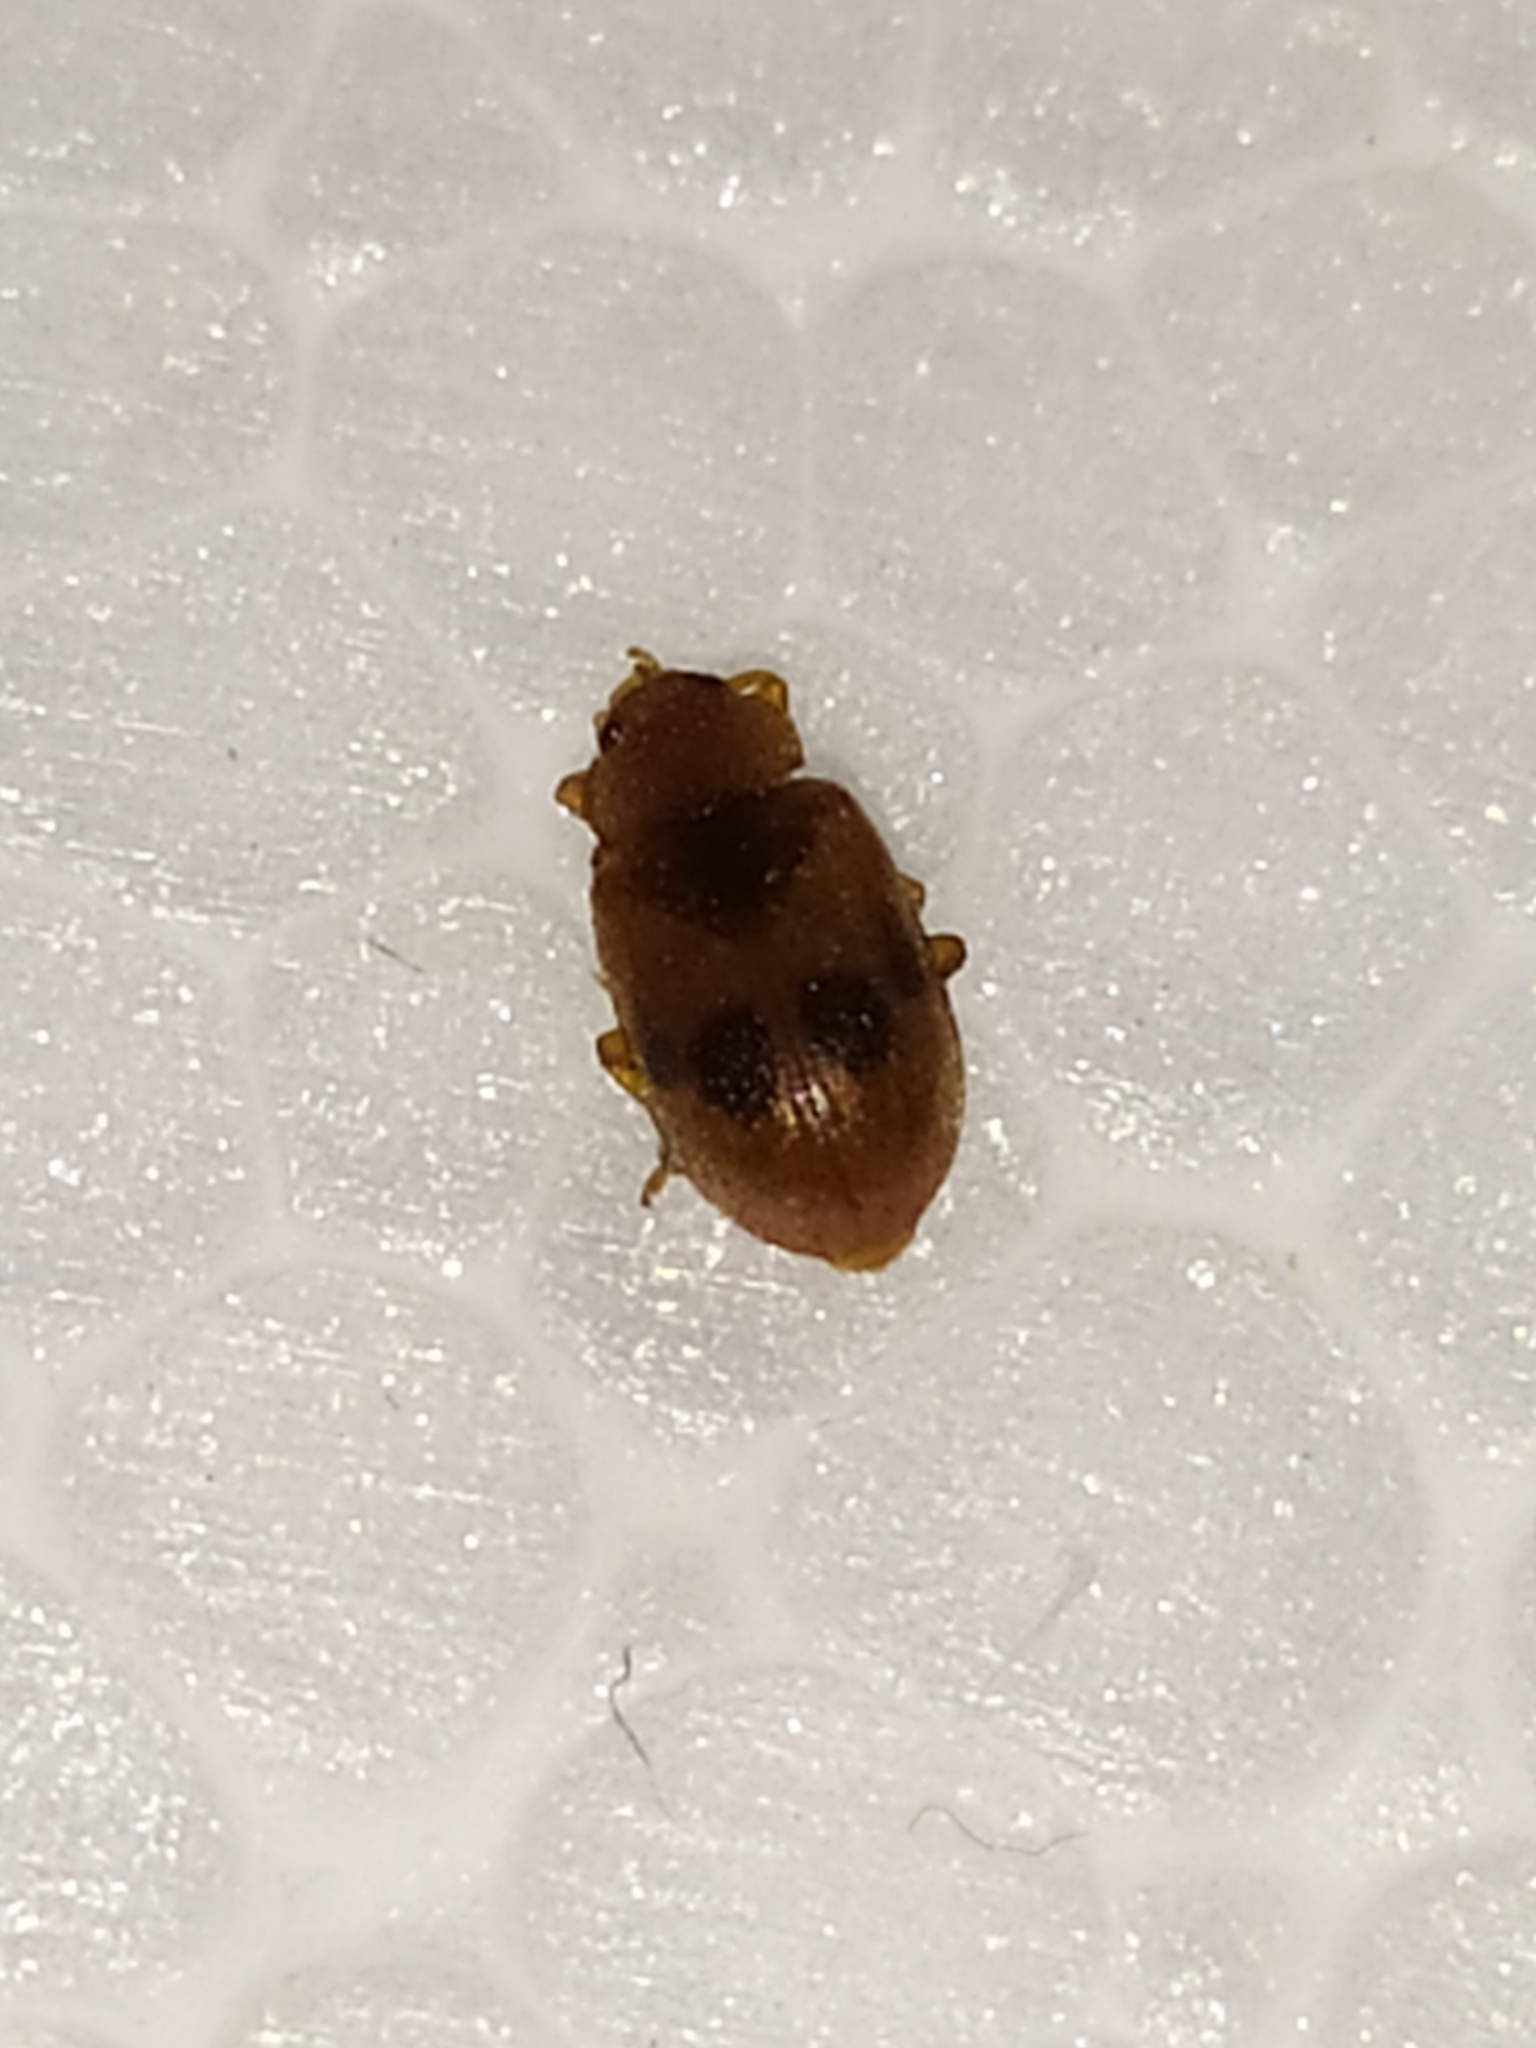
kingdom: Animalia
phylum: Arthropoda
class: Insecta
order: Coleoptera
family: Coccinellidae
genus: Coccidula
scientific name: Coccidula scutellata
